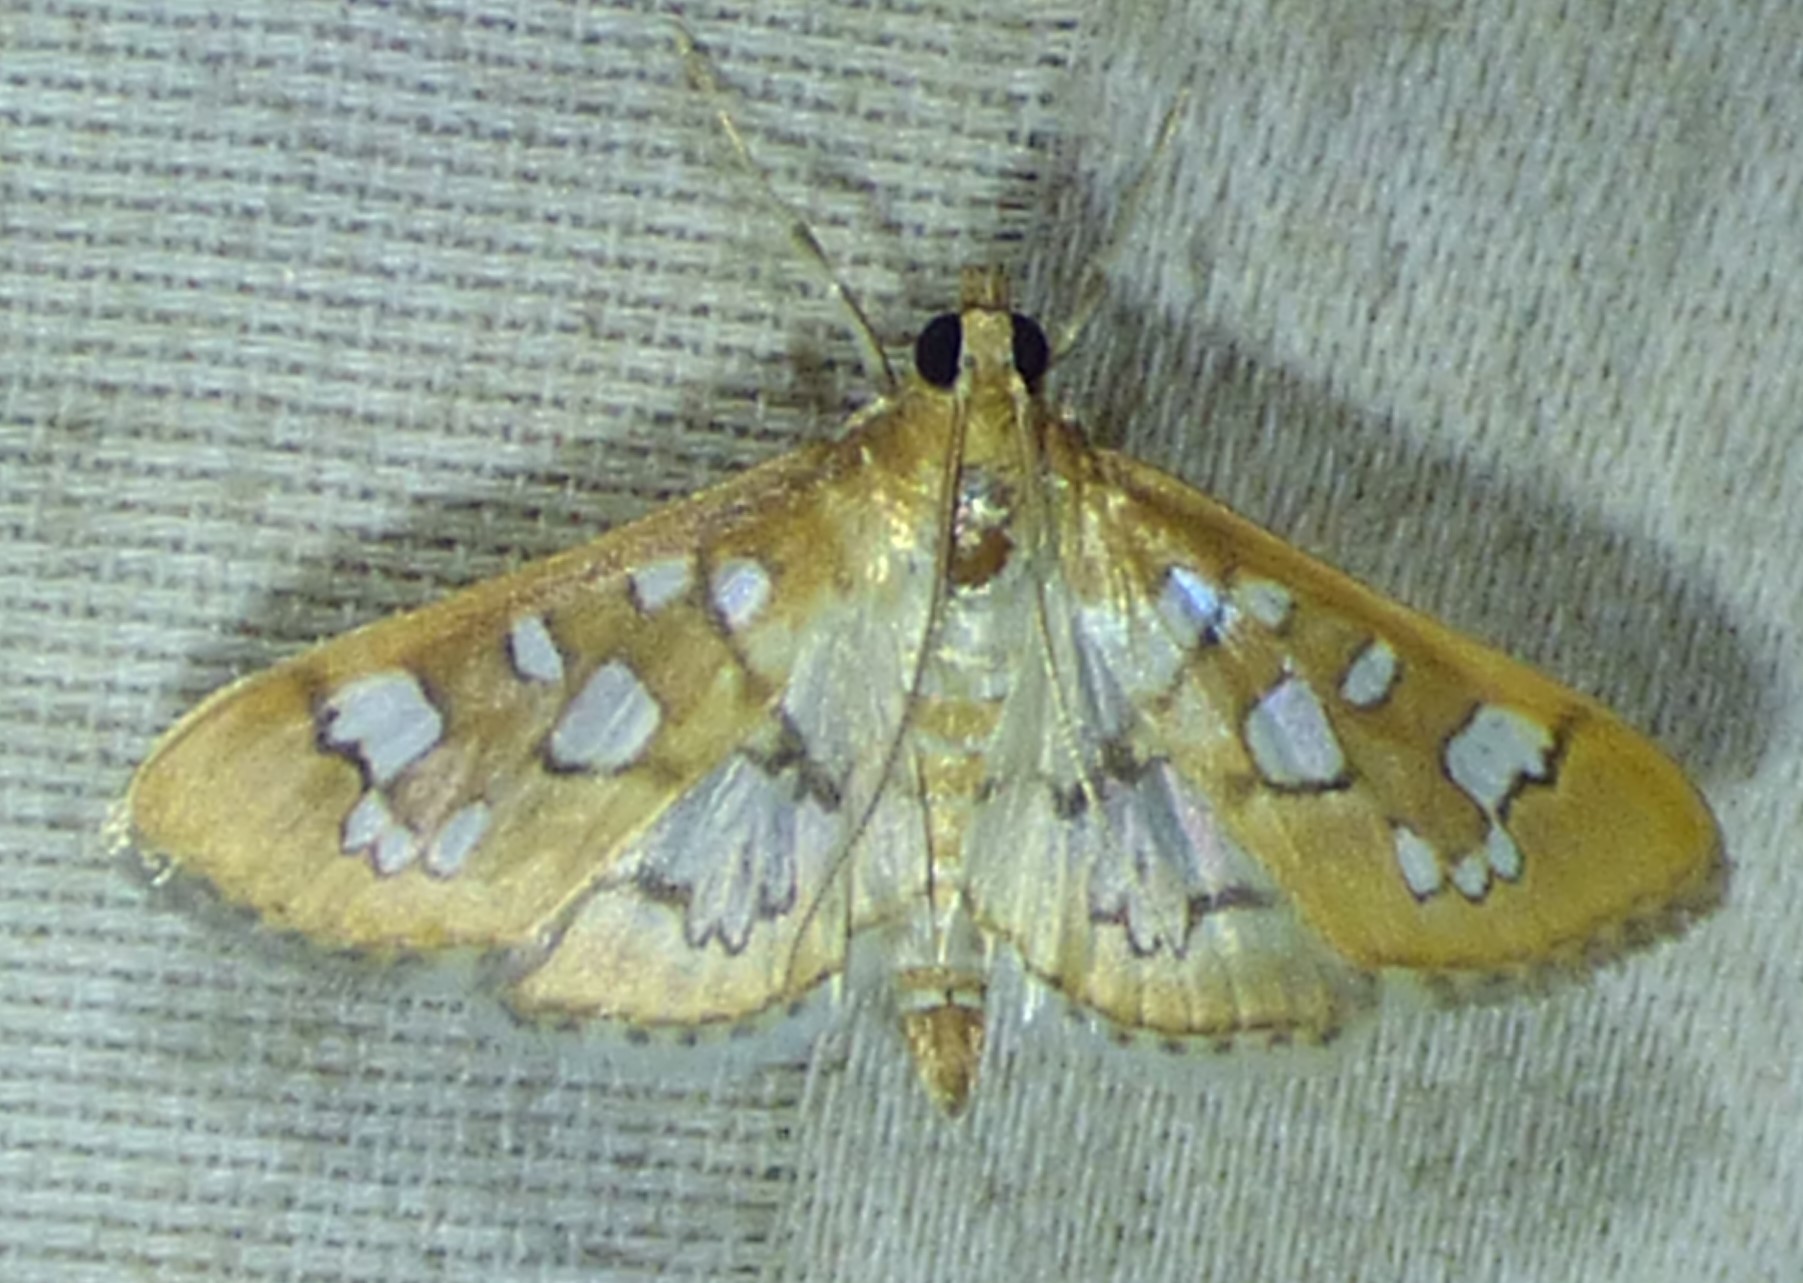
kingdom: Animalia
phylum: Arthropoda
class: Insecta
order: Lepidoptera
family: Crambidae
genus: Samea
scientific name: Samea baccatalis
